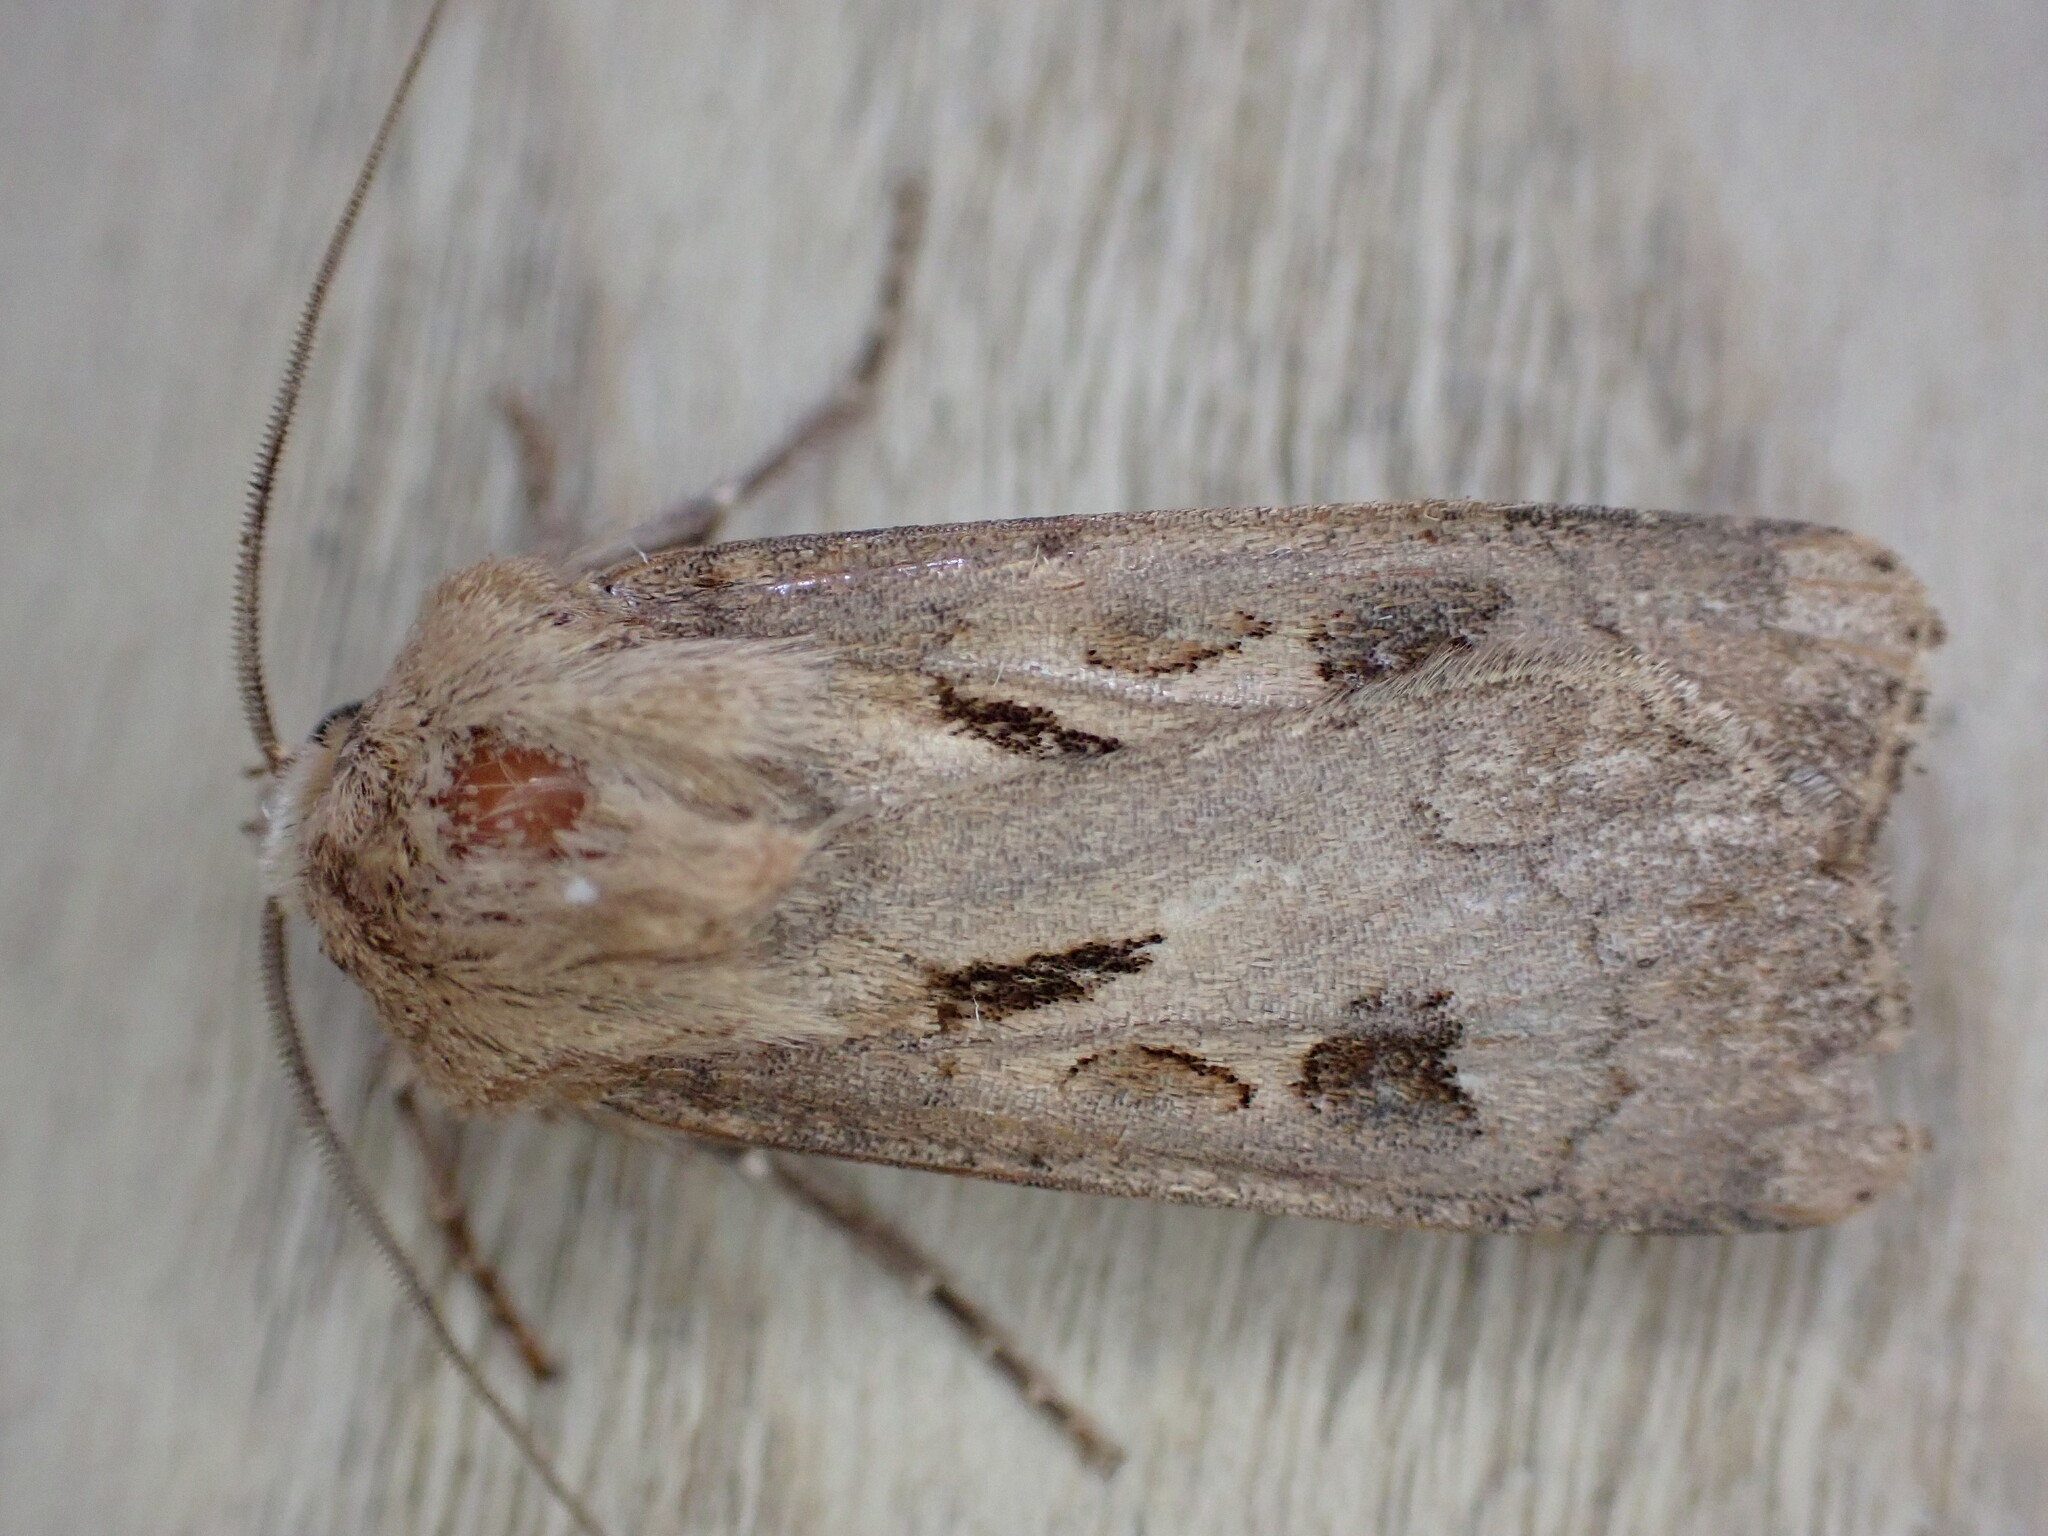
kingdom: Animalia
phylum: Arthropoda
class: Insecta
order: Lepidoptera
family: Noctuidae
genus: Agrotis
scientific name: Agrotis exclamationis
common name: Heart and dart
